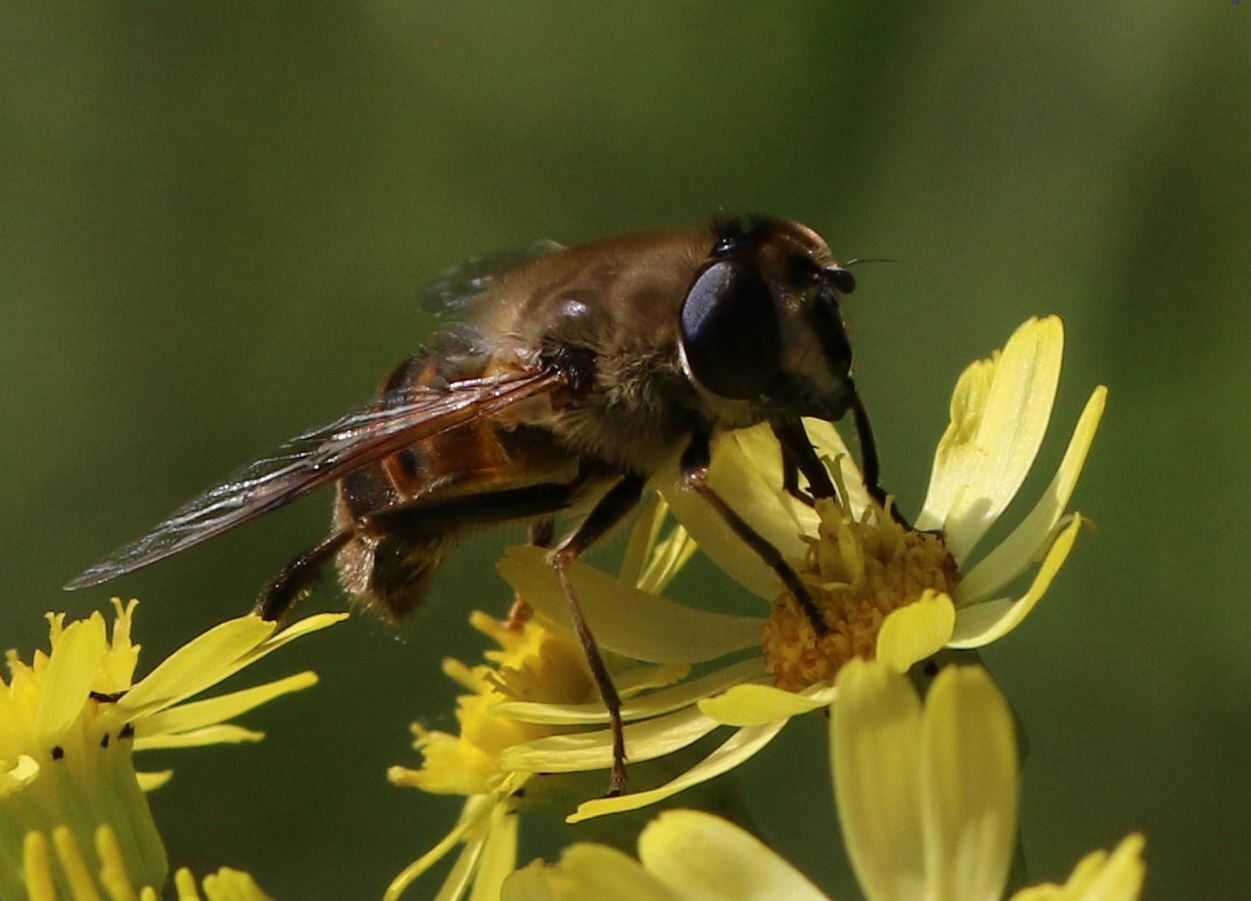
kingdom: Animalia
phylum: Arthropoda
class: Insecta
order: Diptera
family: Syrphidae
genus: Eristalis
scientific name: Eristalis tenax
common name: Drone fly
